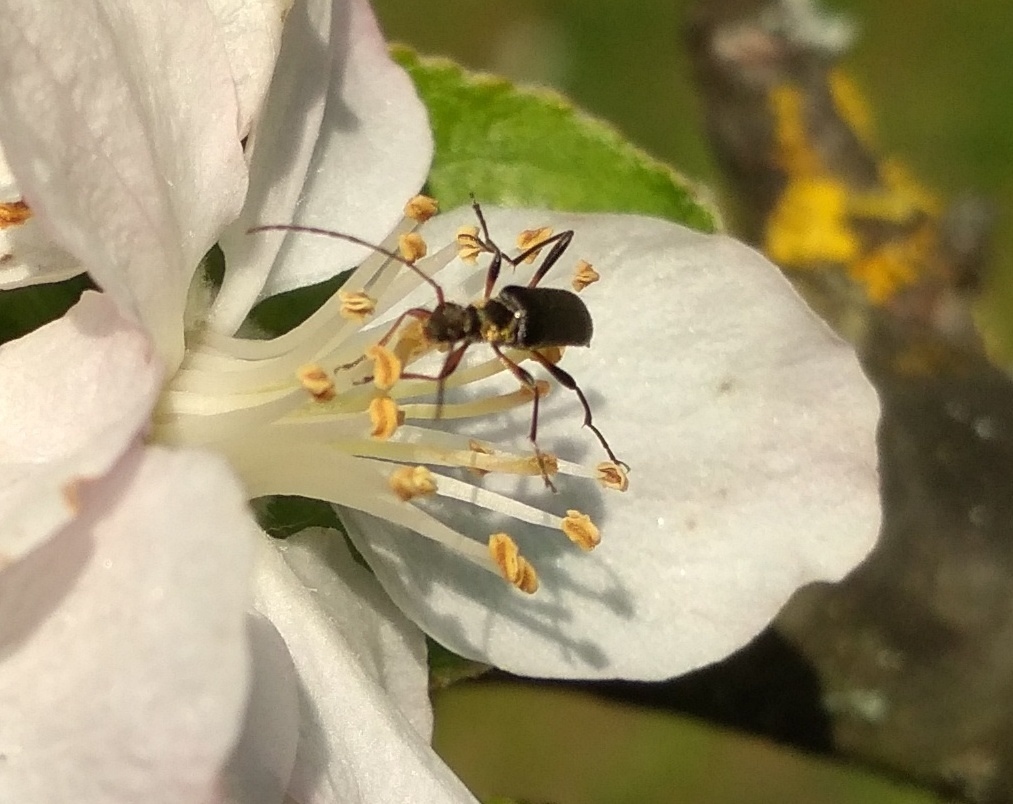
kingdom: Animalia
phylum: Arthropoda
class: Insecta
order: Coleoptera
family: Cerambycidae
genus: Grammoptera
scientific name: Grammoptera ruficornis
